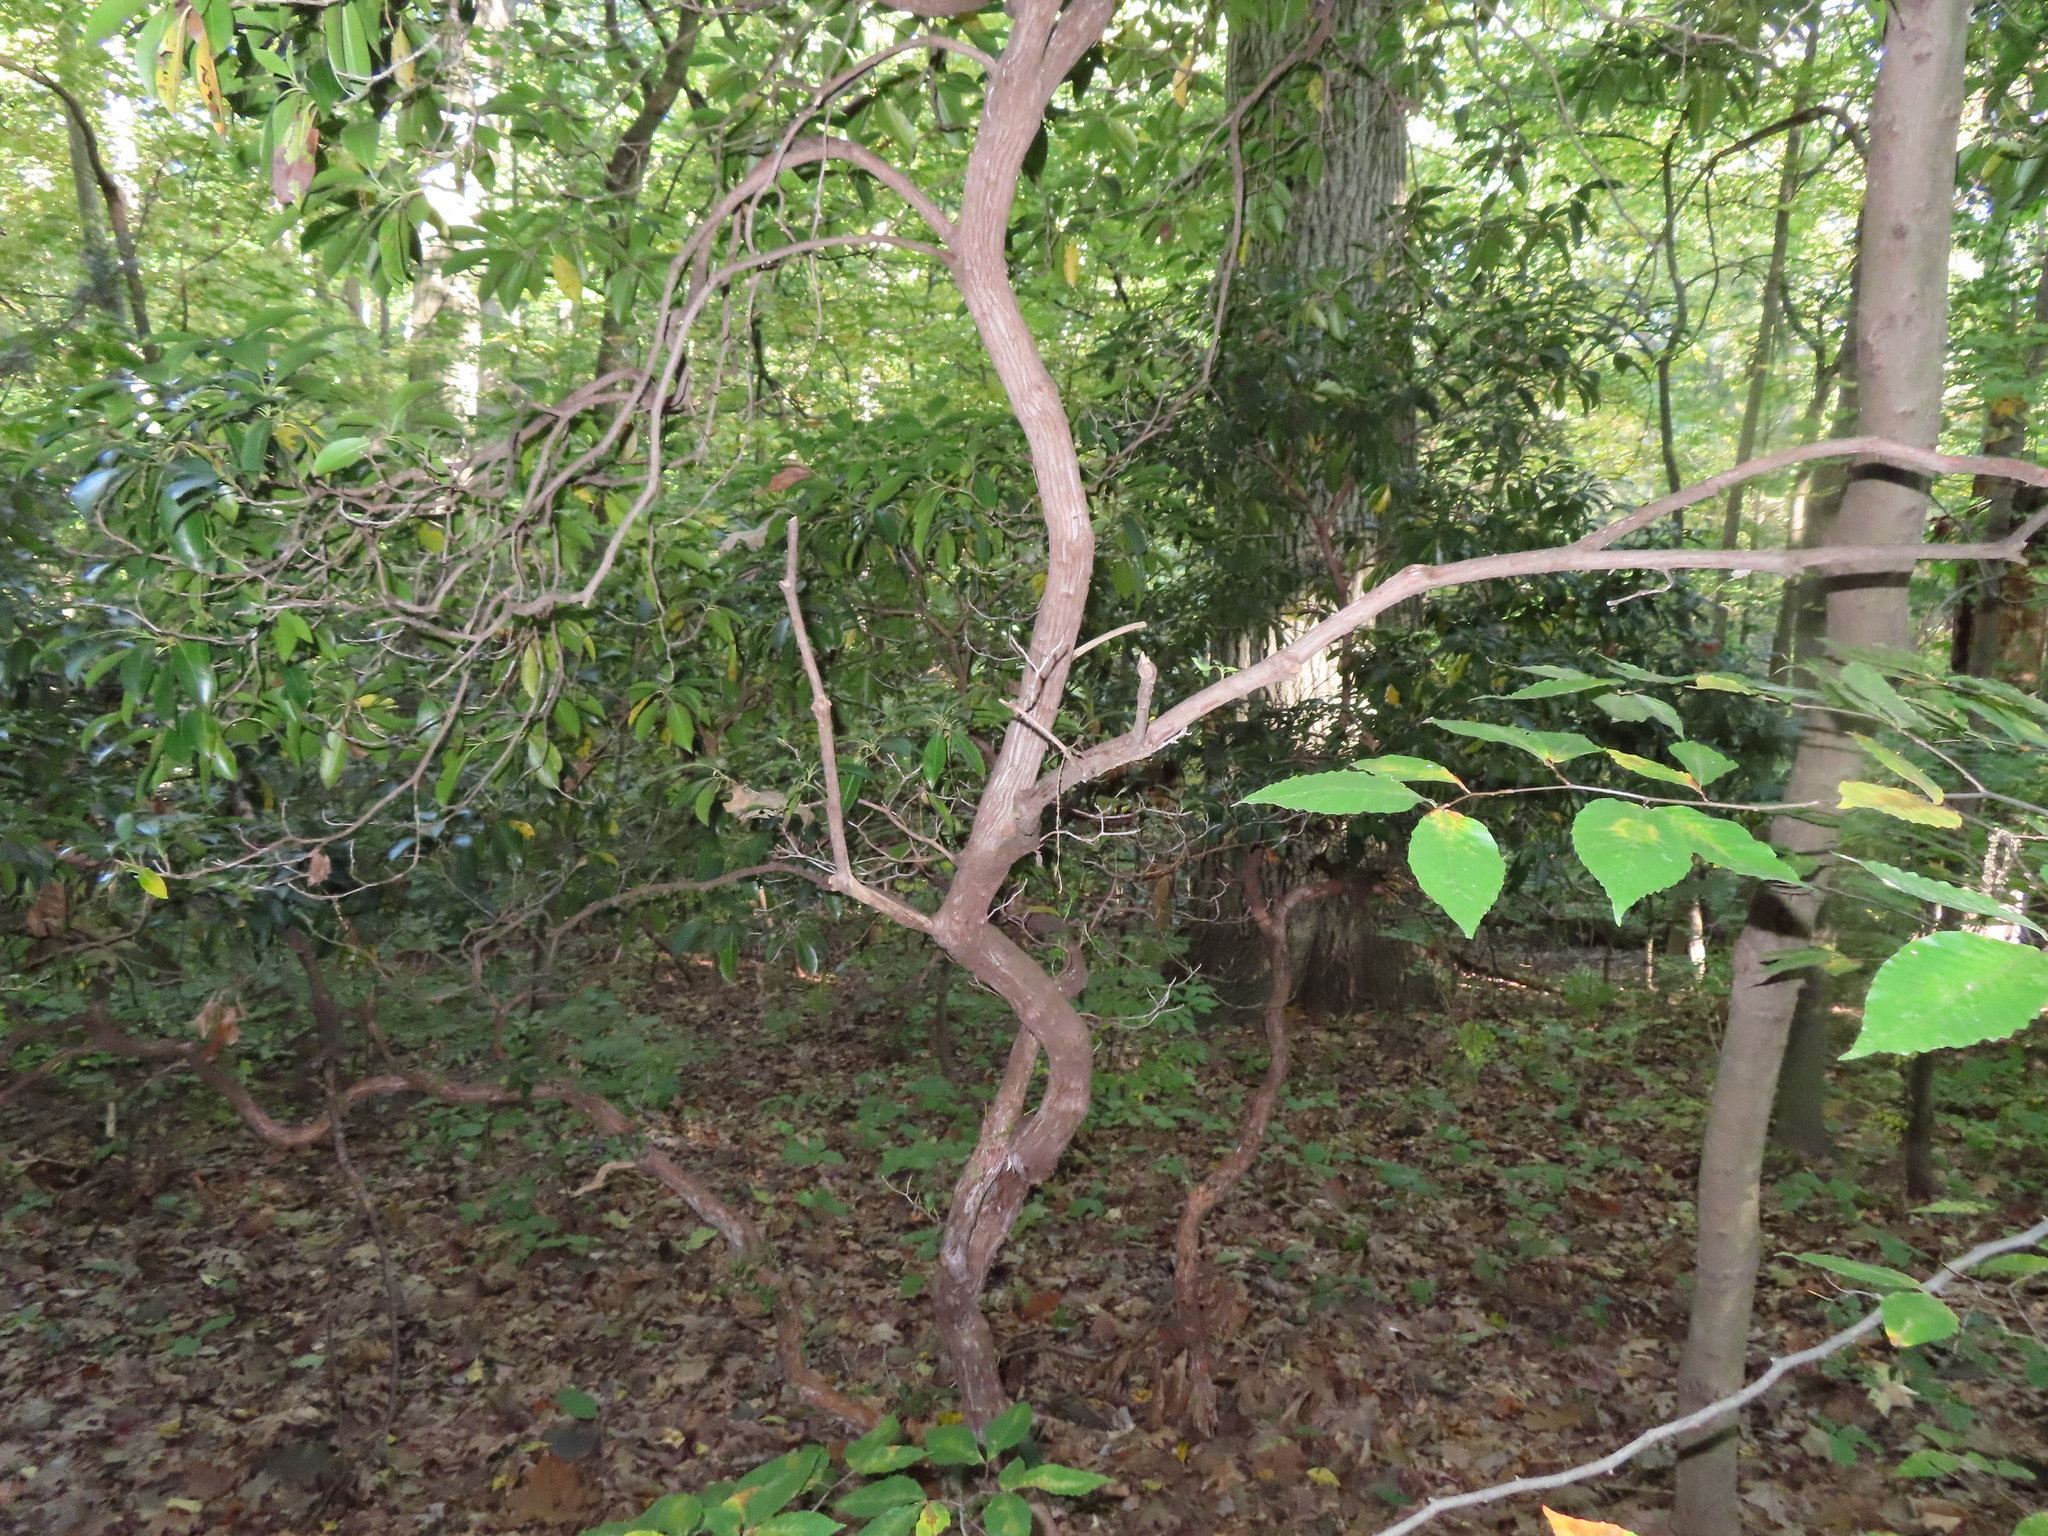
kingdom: Plantae
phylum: Tracheophyta
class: Magnoliopsida
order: Ericales
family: Ericaceae
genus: Kalmia
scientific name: Kalmia latifolia
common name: Mountain-laurel
